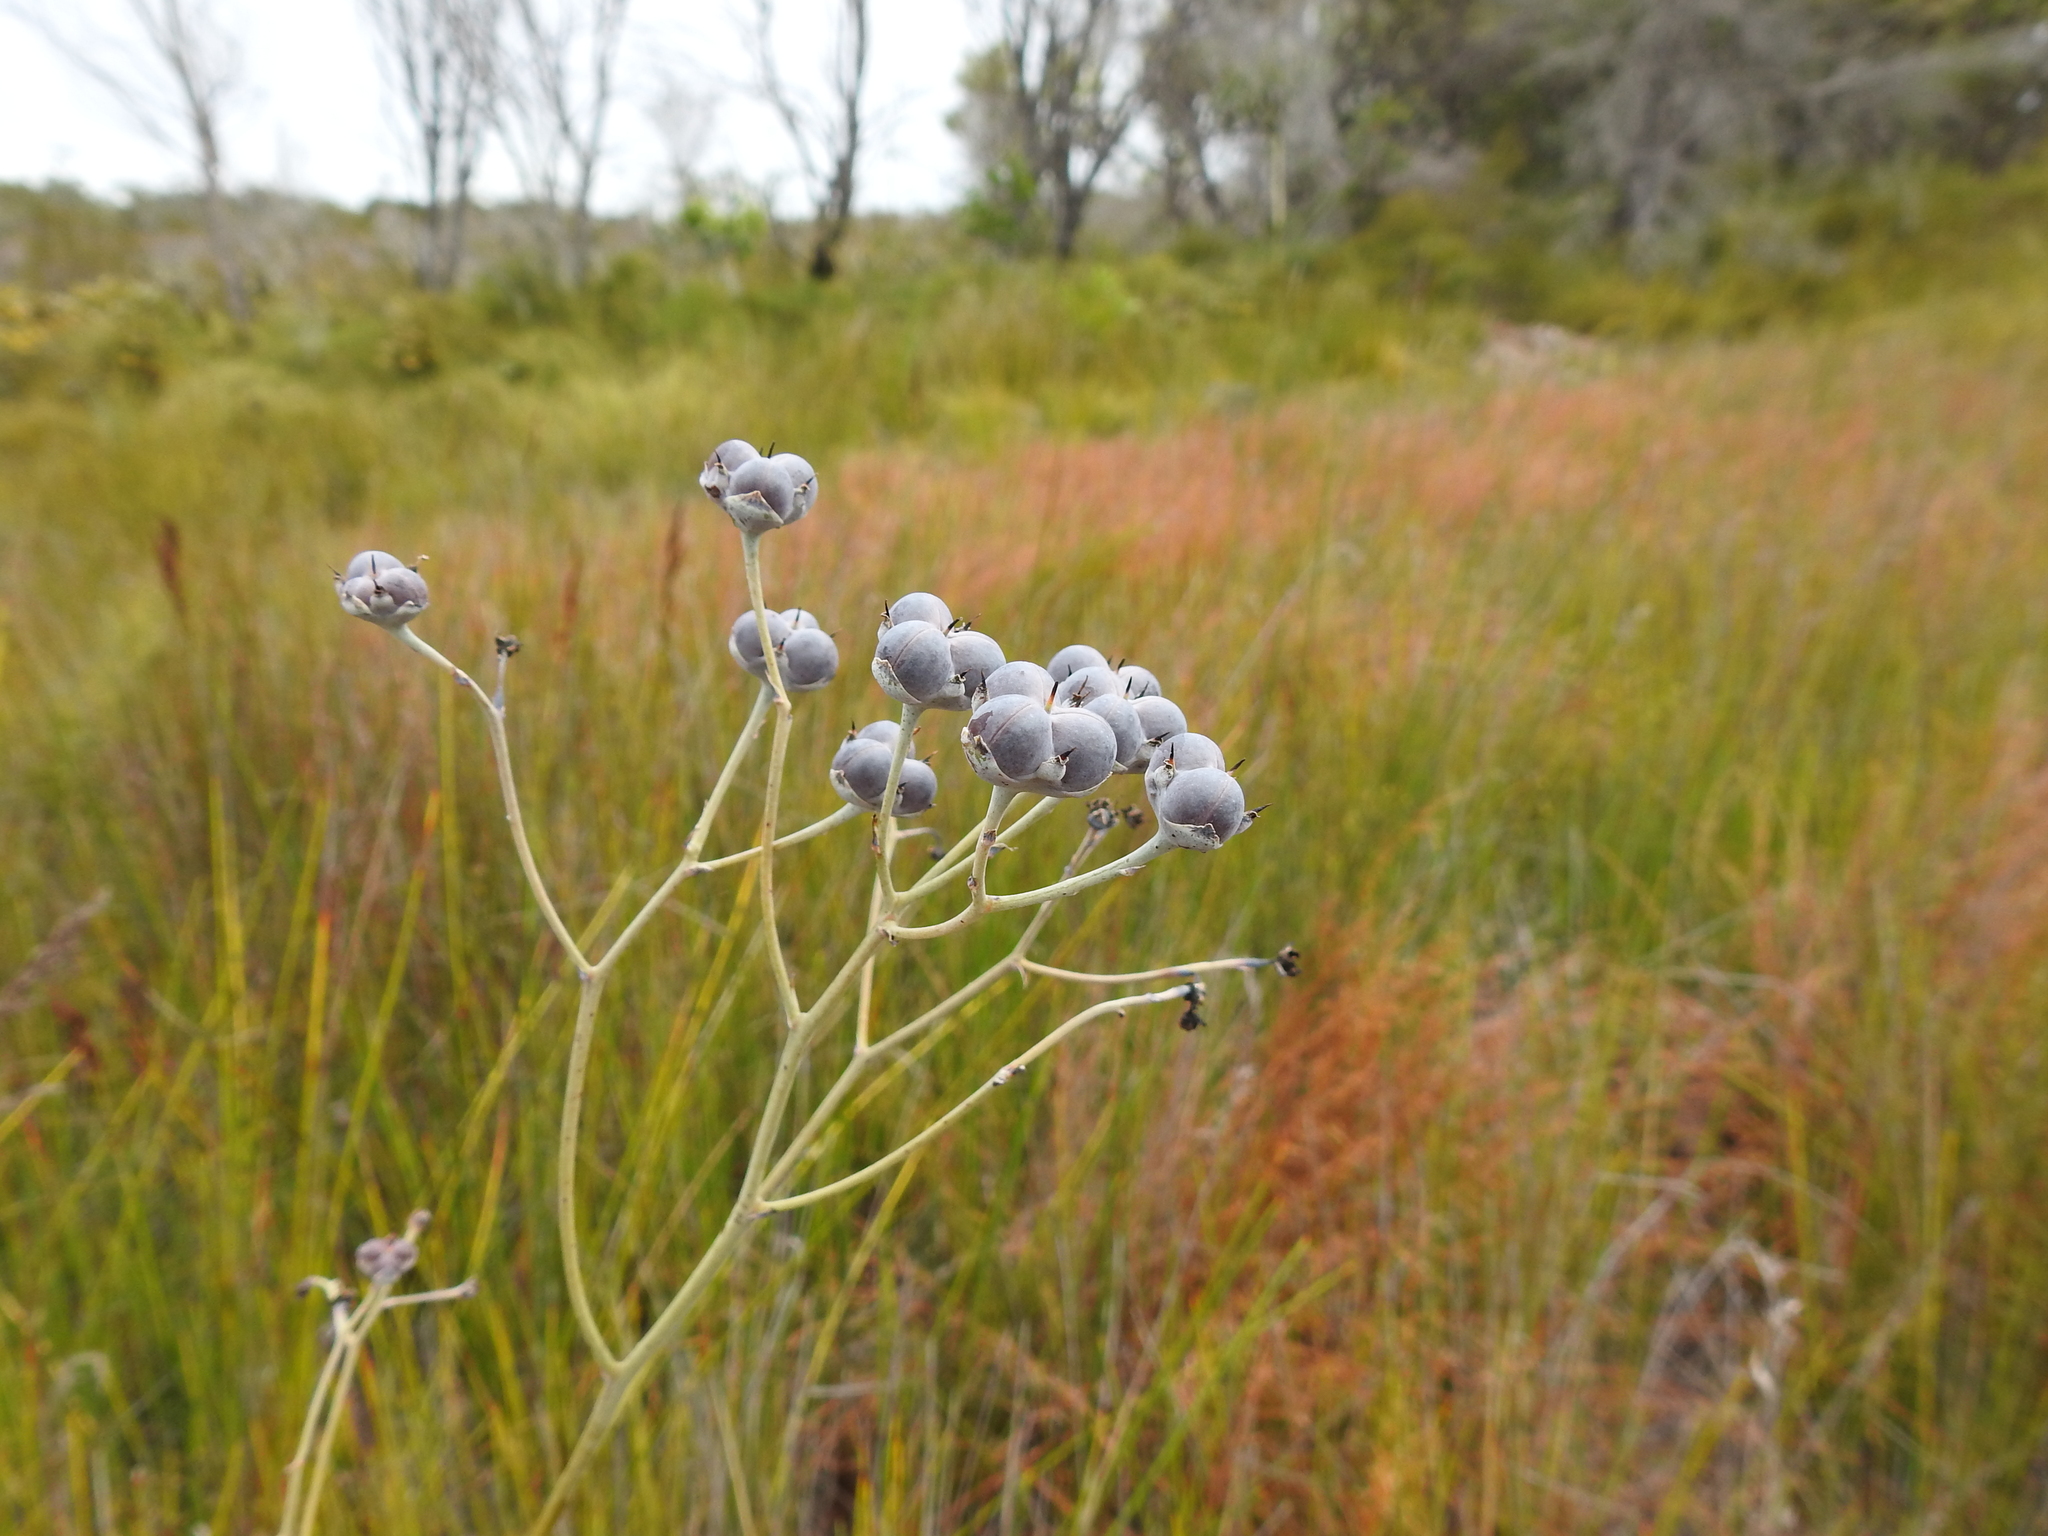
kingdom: Plantae
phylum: Tracheophyta
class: Liliopsida
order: Commelinales
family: Haemodoraceae
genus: Haemodorum
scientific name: Haemodorum tenuifolium
